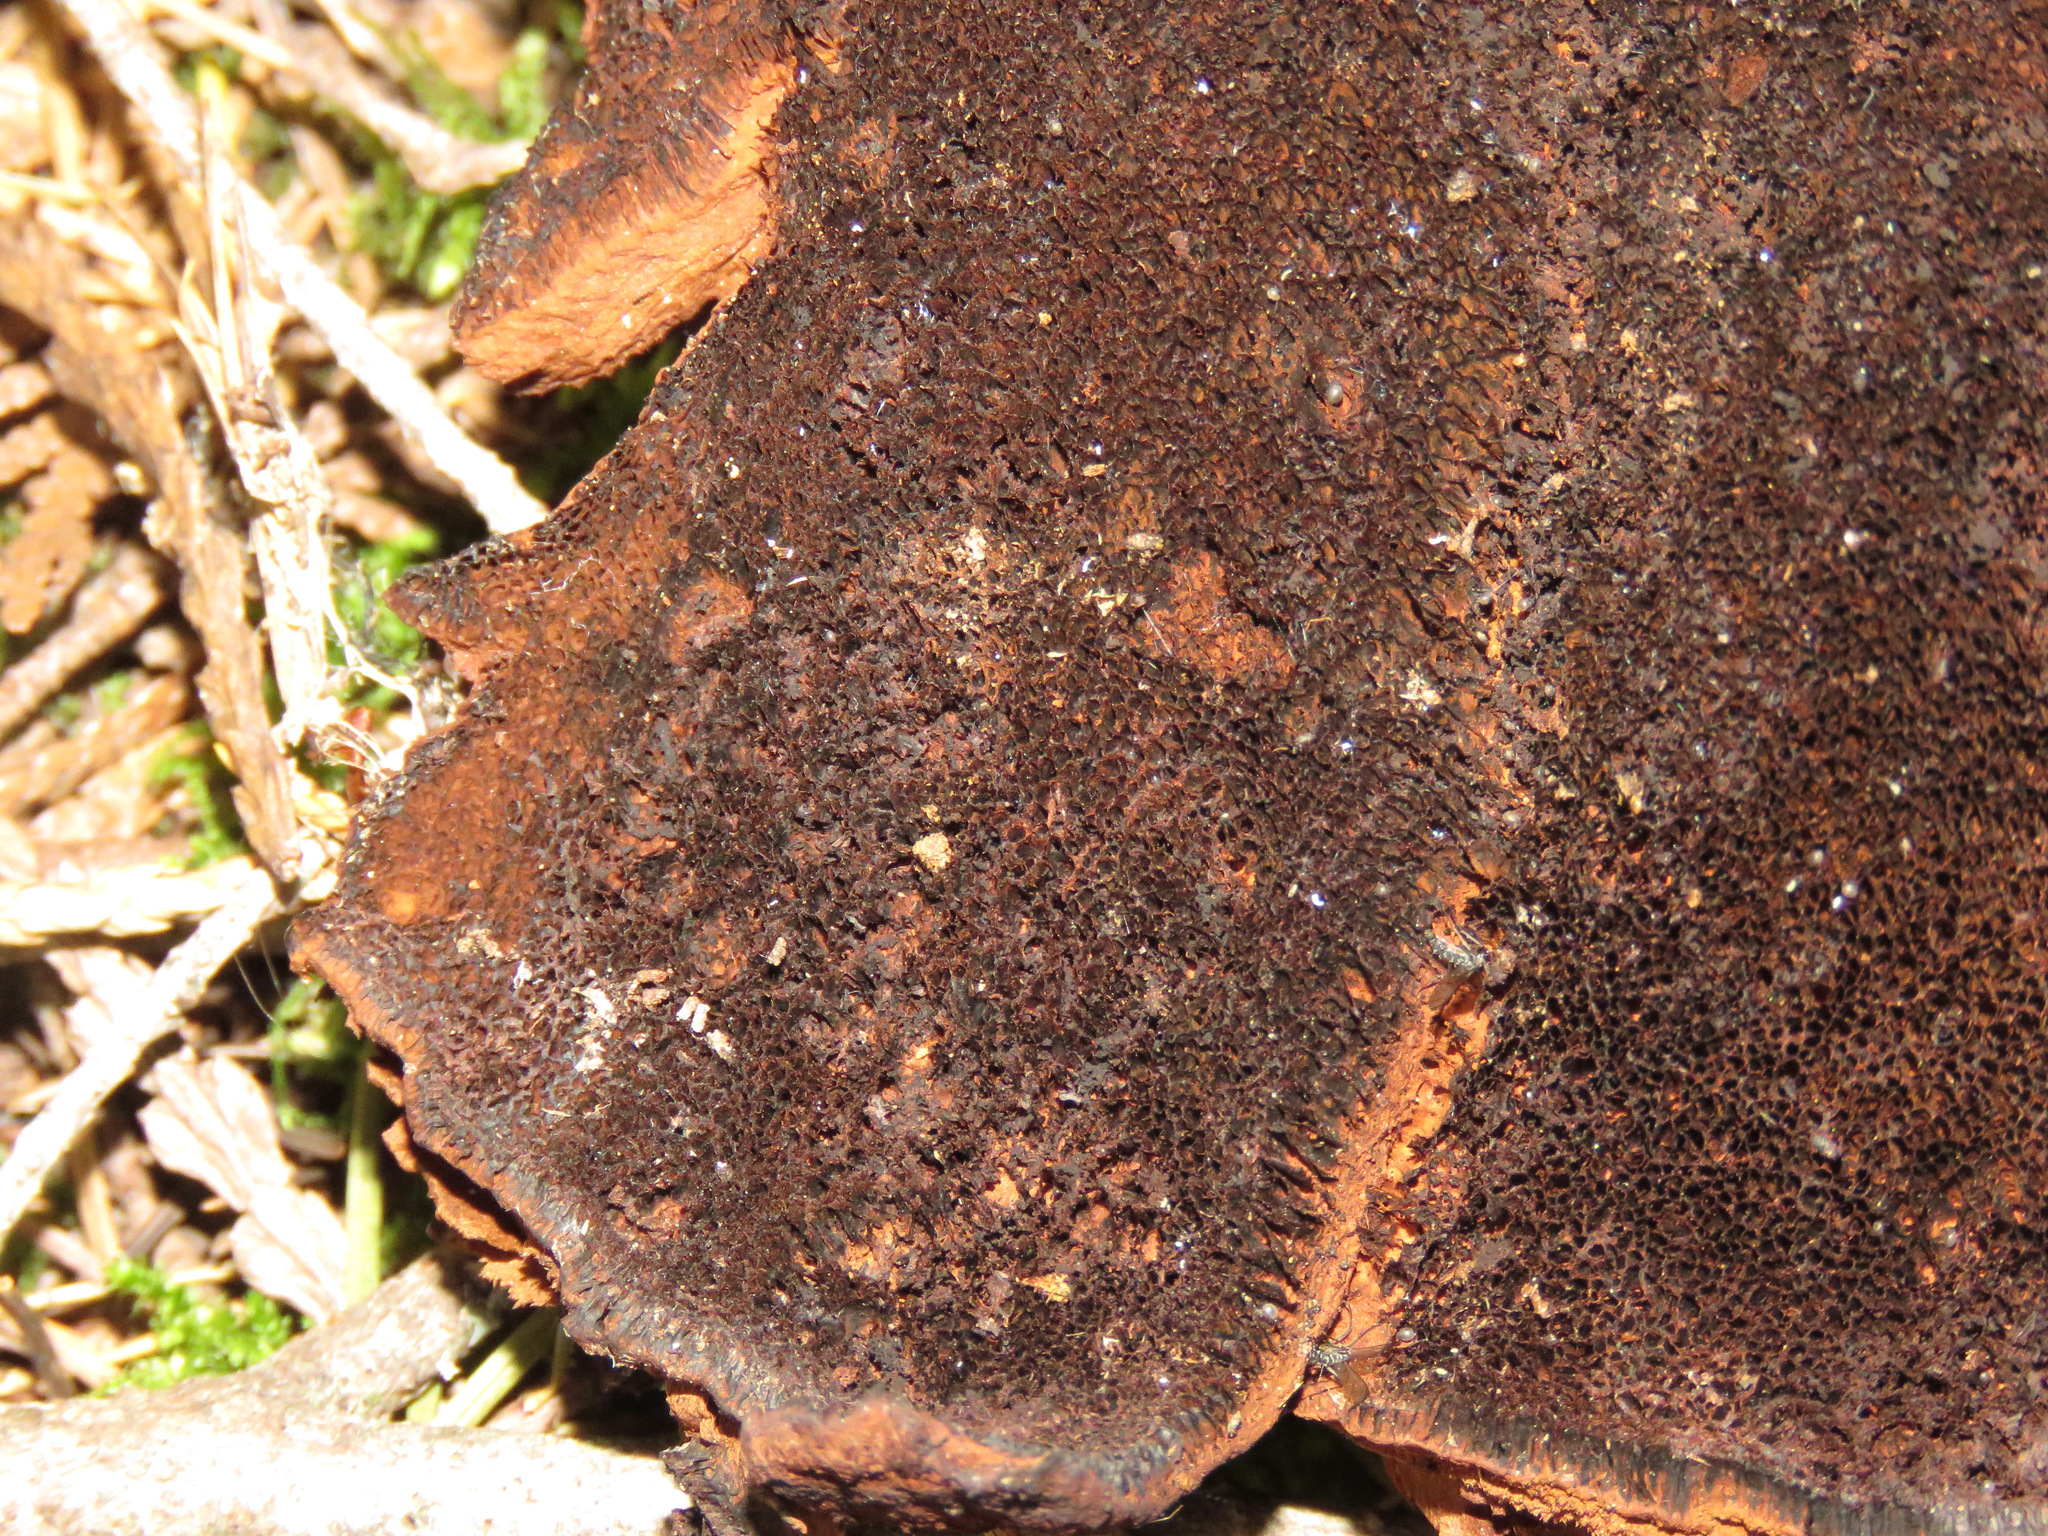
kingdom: Fungi
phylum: Basidiomycota
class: Agaricomycetes
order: Polyporales
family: Laetiporaceae
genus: Phaeolus
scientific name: Phaeolus schweinitzii
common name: Dyer's mazegill
